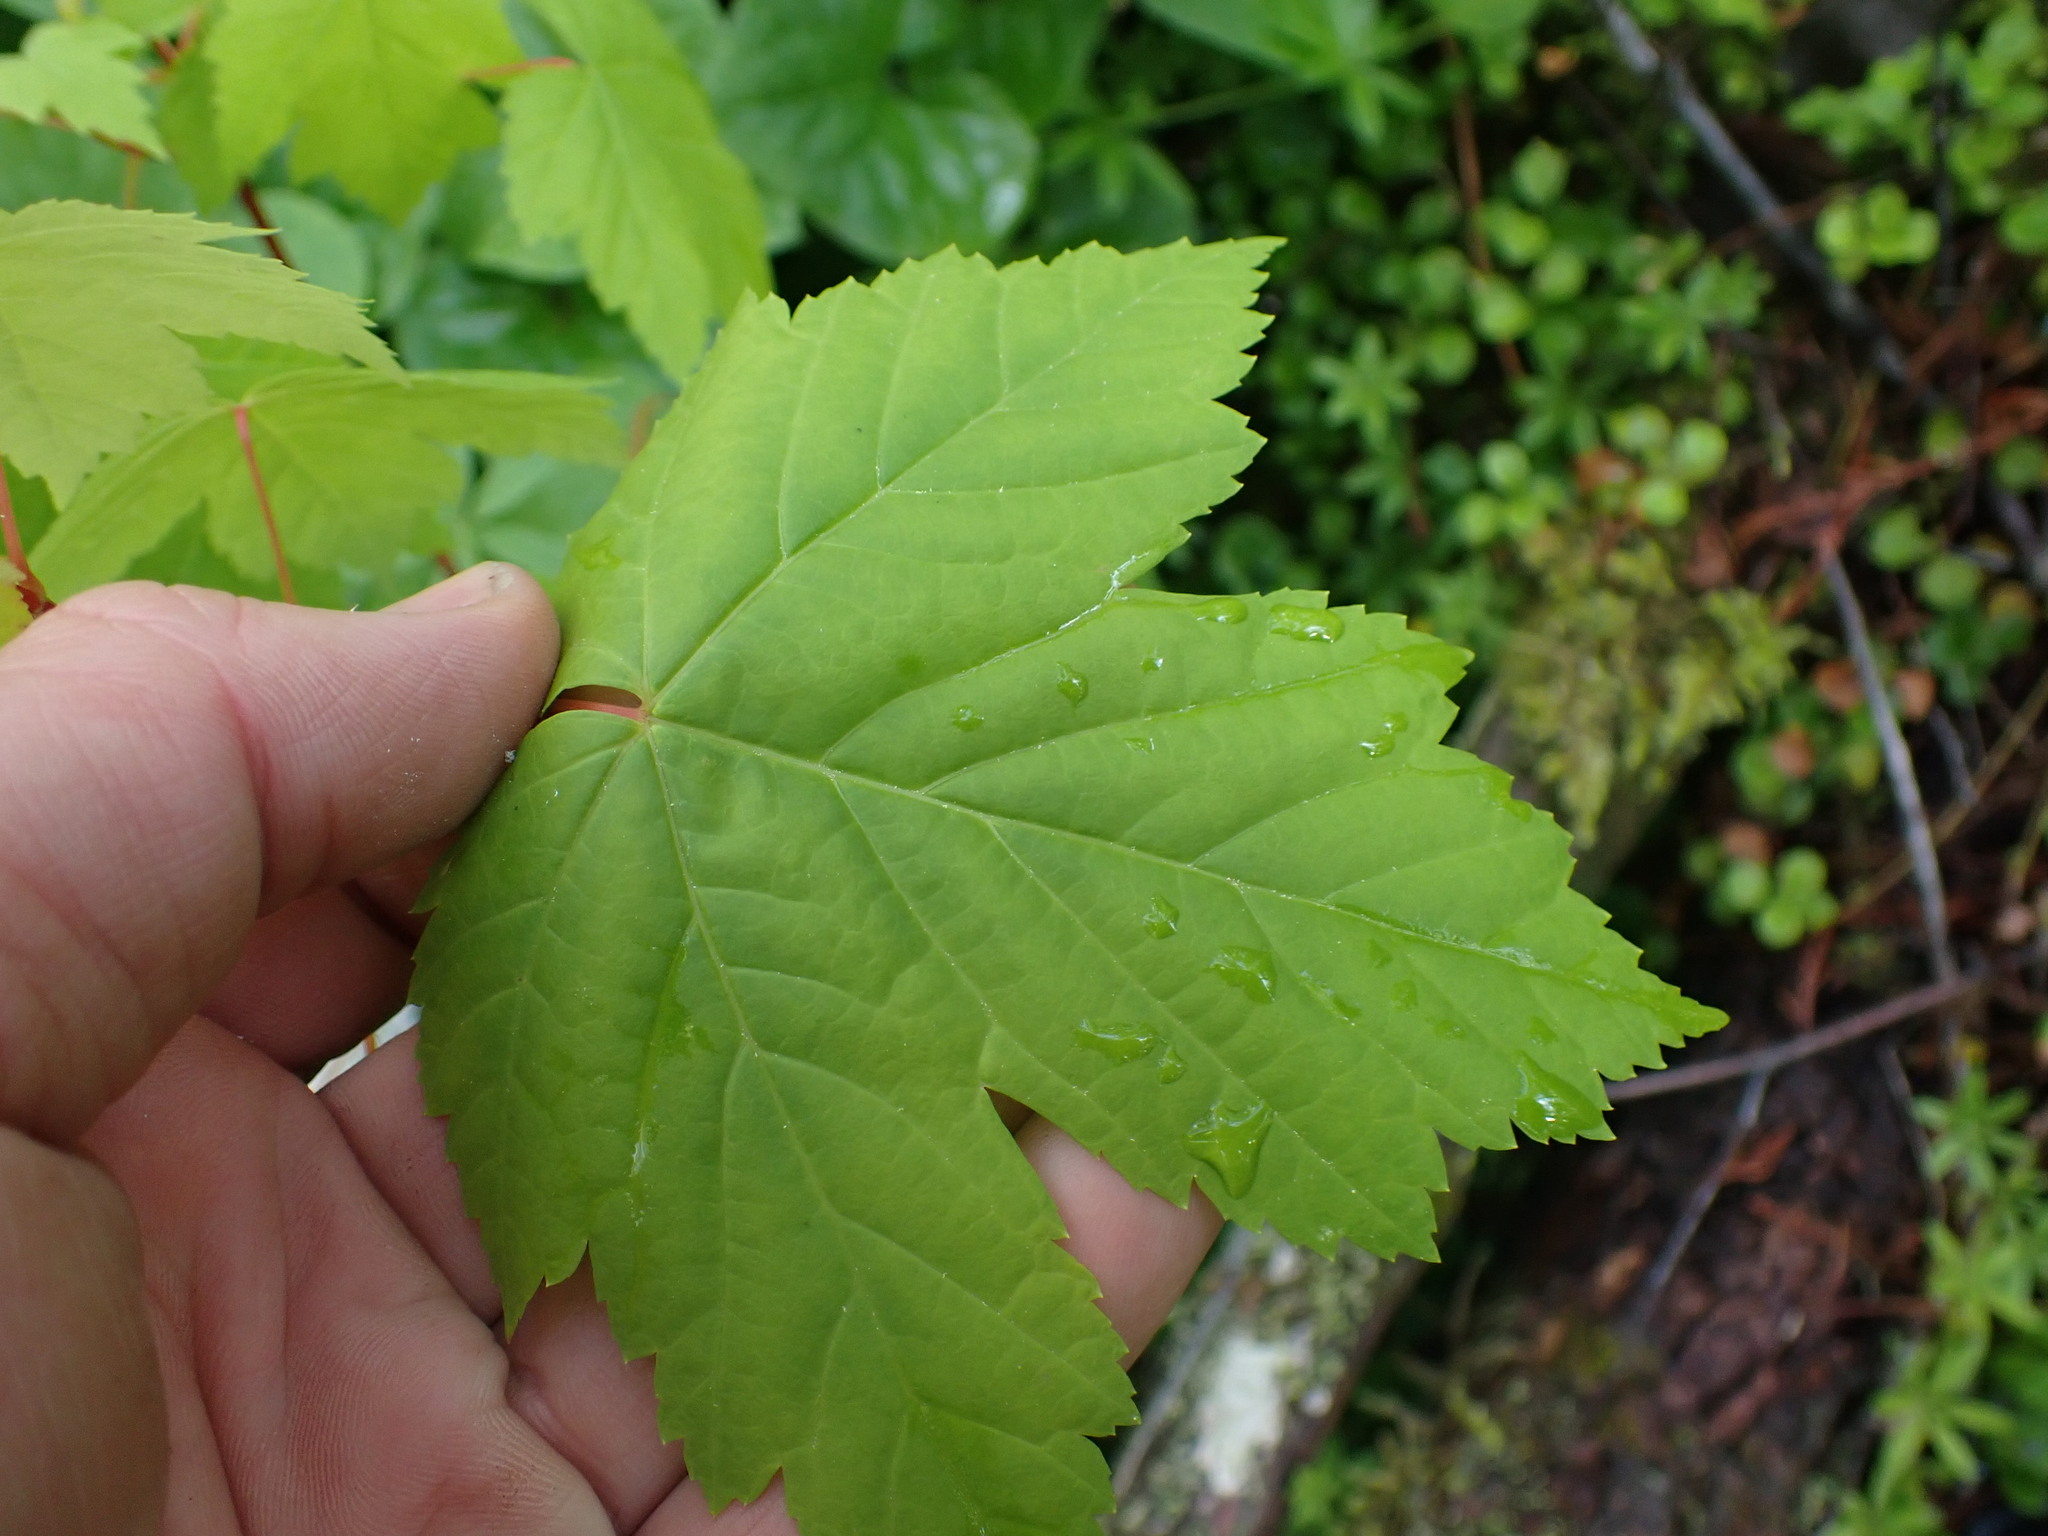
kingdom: Plantae
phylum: Tracheophyta
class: Magnoliopsida
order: Sapindales
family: Sapindaceae
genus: Acer
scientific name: Acer glabrum
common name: Rocky mountain maple
